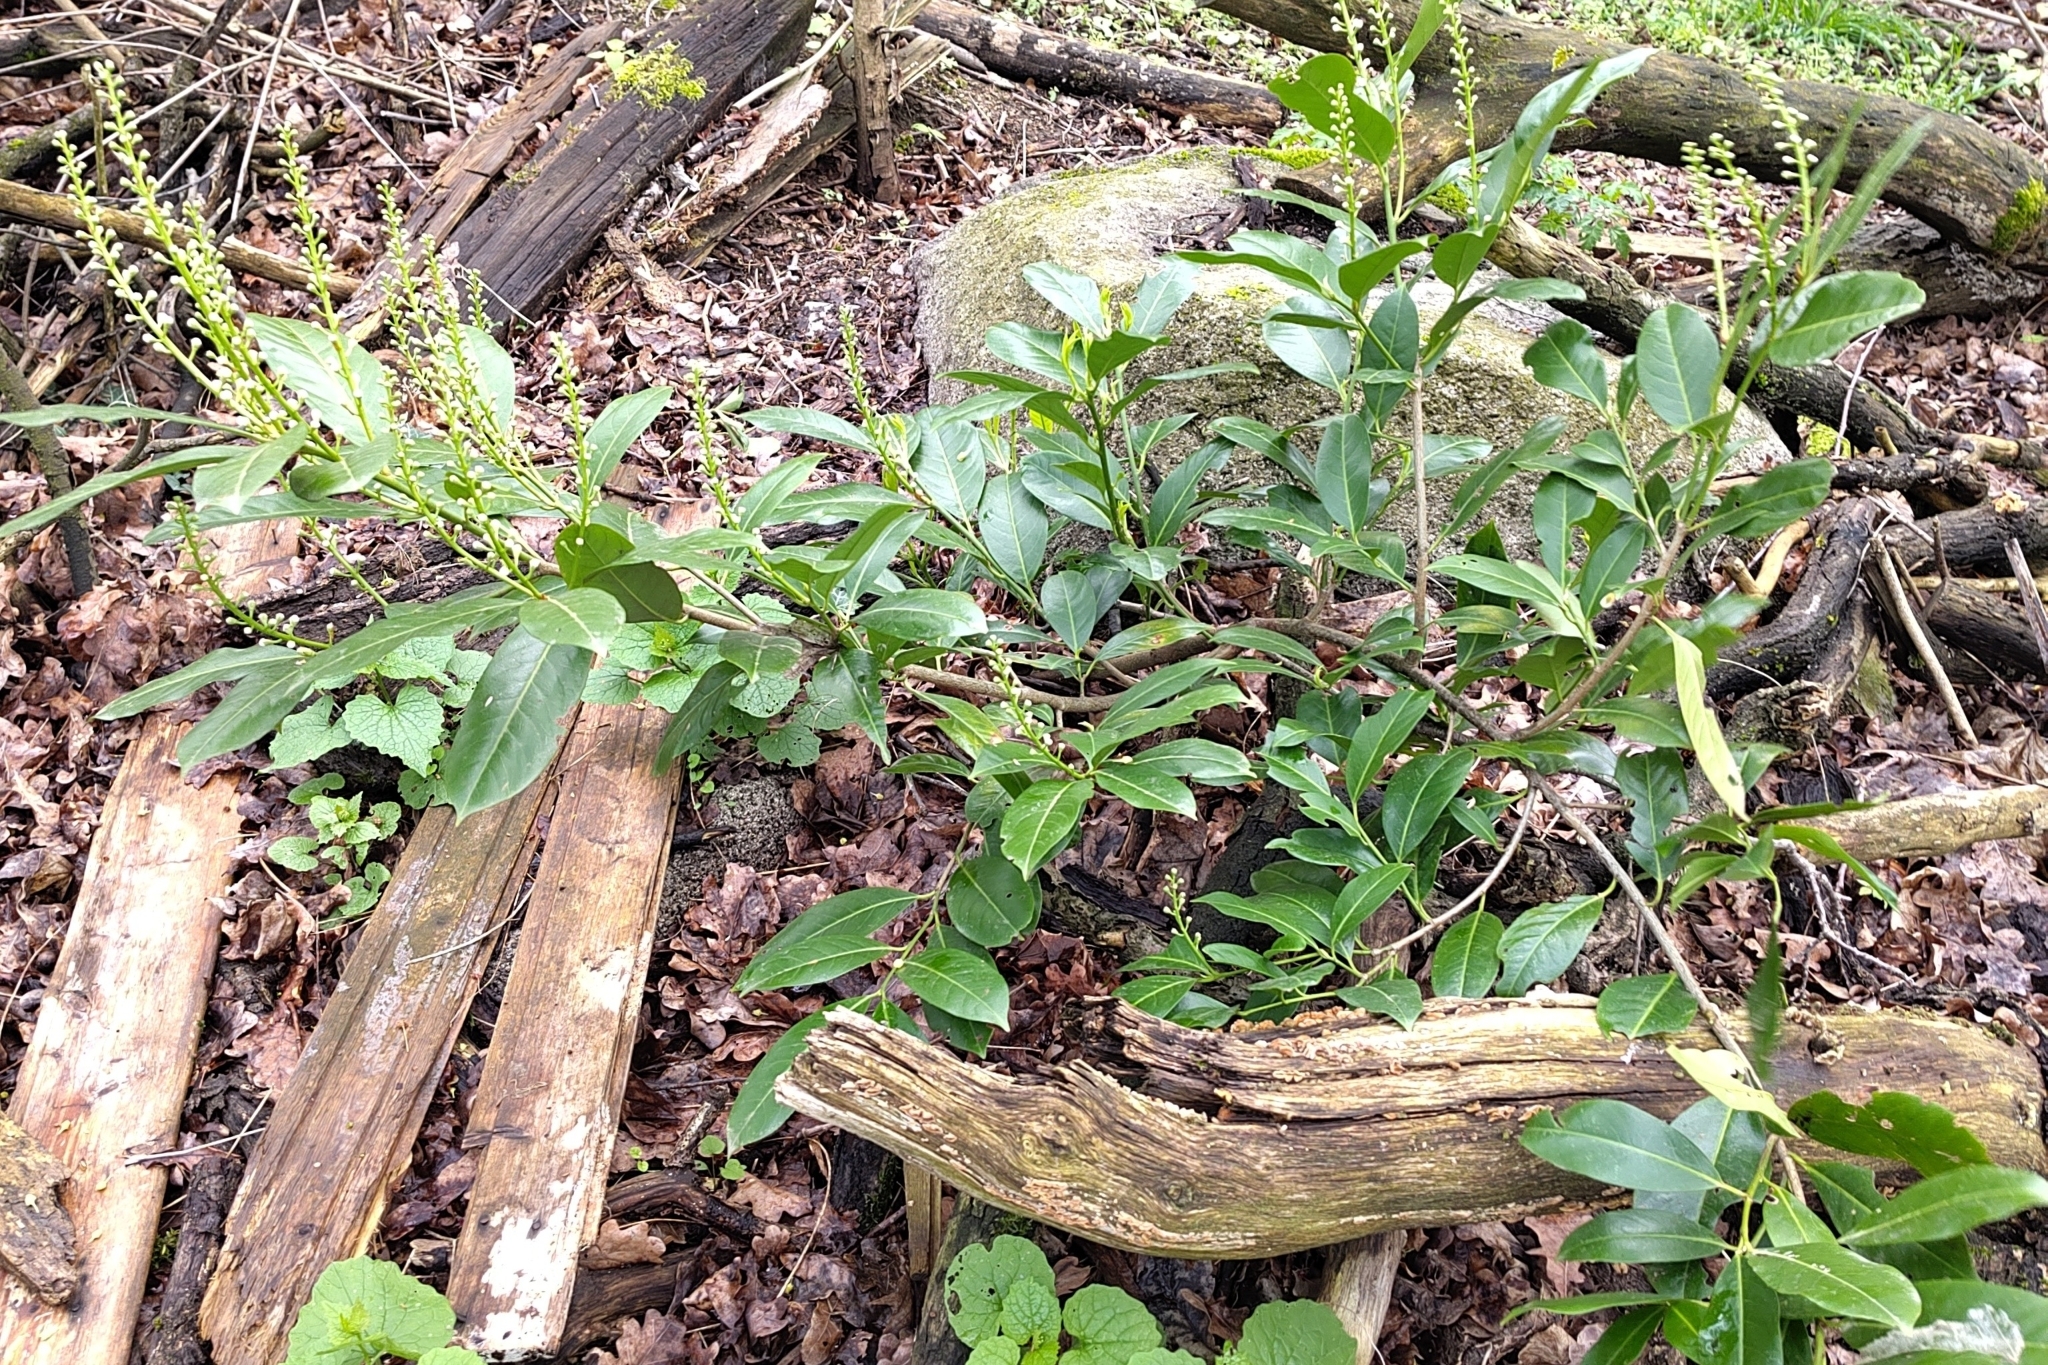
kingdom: Plantae
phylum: Tracheophyta
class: Magnoliopsida
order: Rosales
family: Rosaceae
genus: Prunus
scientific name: Prunus laurocerasus
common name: Cherry laurel
